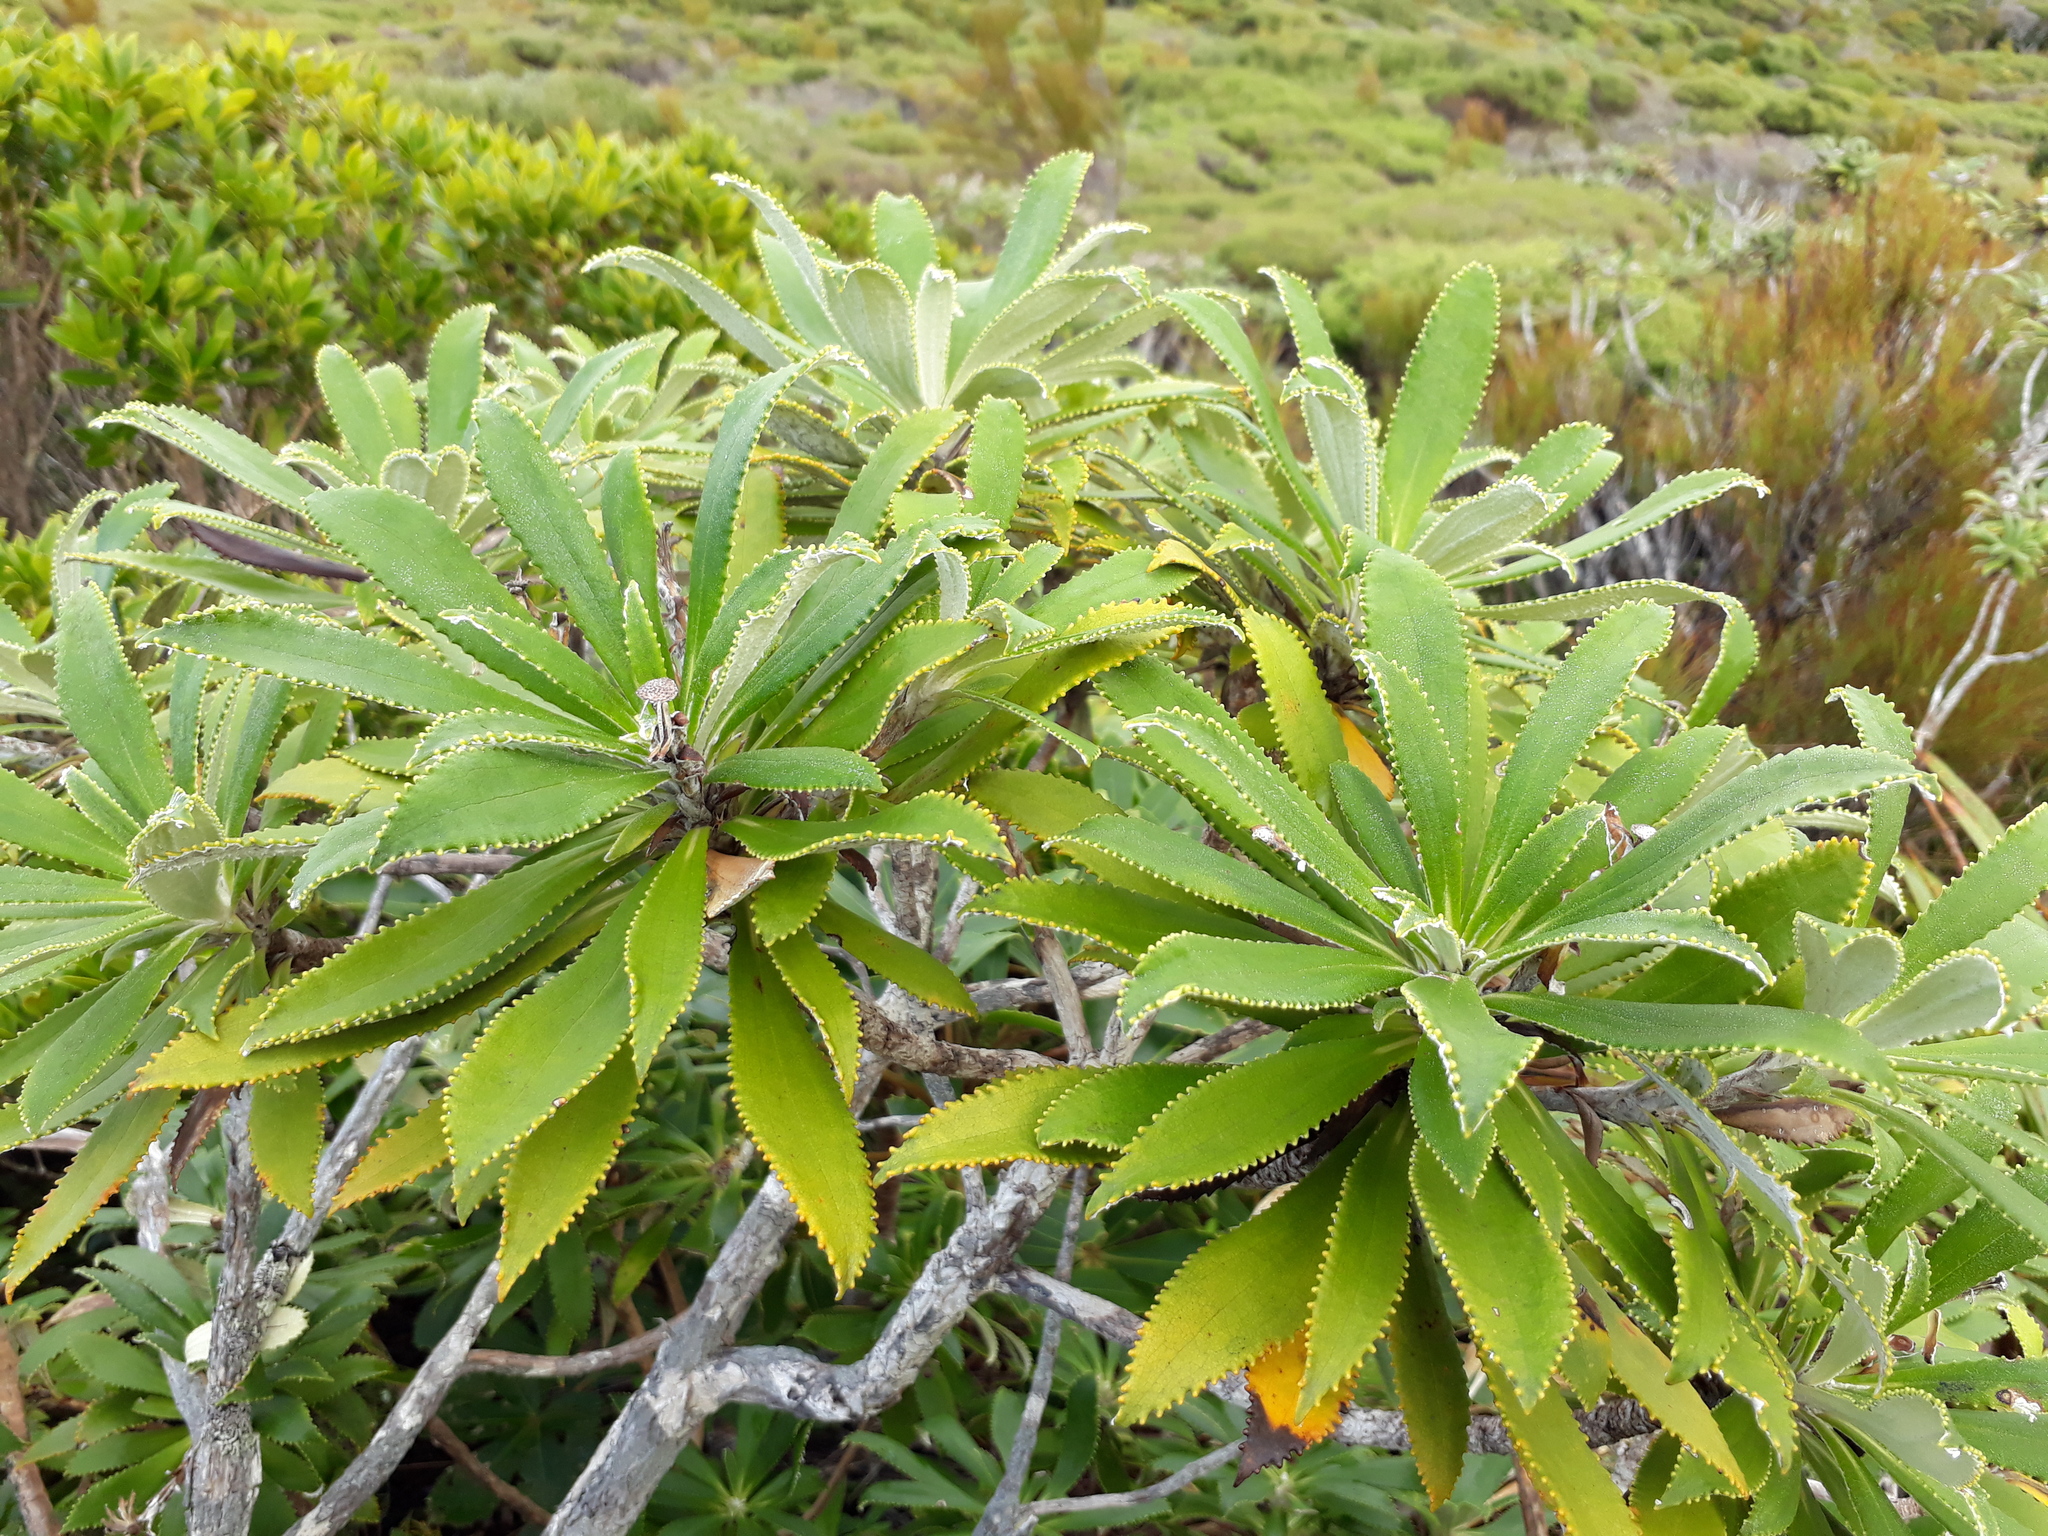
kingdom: Plantae
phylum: Tracheophyta
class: Magnoliopsida
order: Asterales
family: Asteraceae
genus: Macrolearia
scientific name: Macrolearia angustifolia
